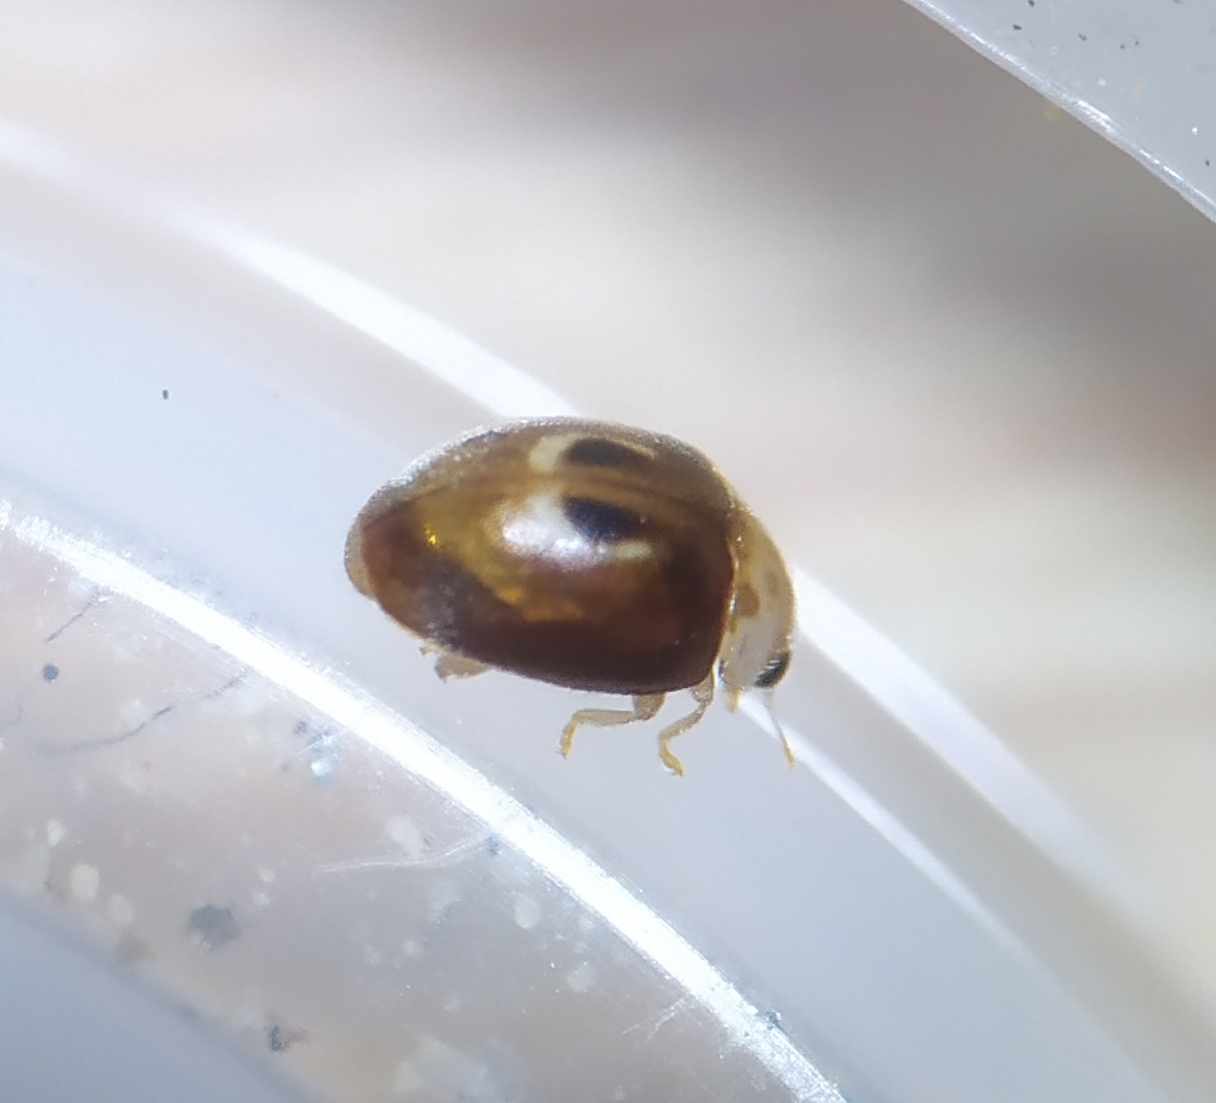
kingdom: Animalia
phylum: Arthropoda
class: Insecta
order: Coleoptera
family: Coccinellidae
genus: Clitostethus
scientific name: Clitostethus arcuatus
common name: Ladybird beetle
